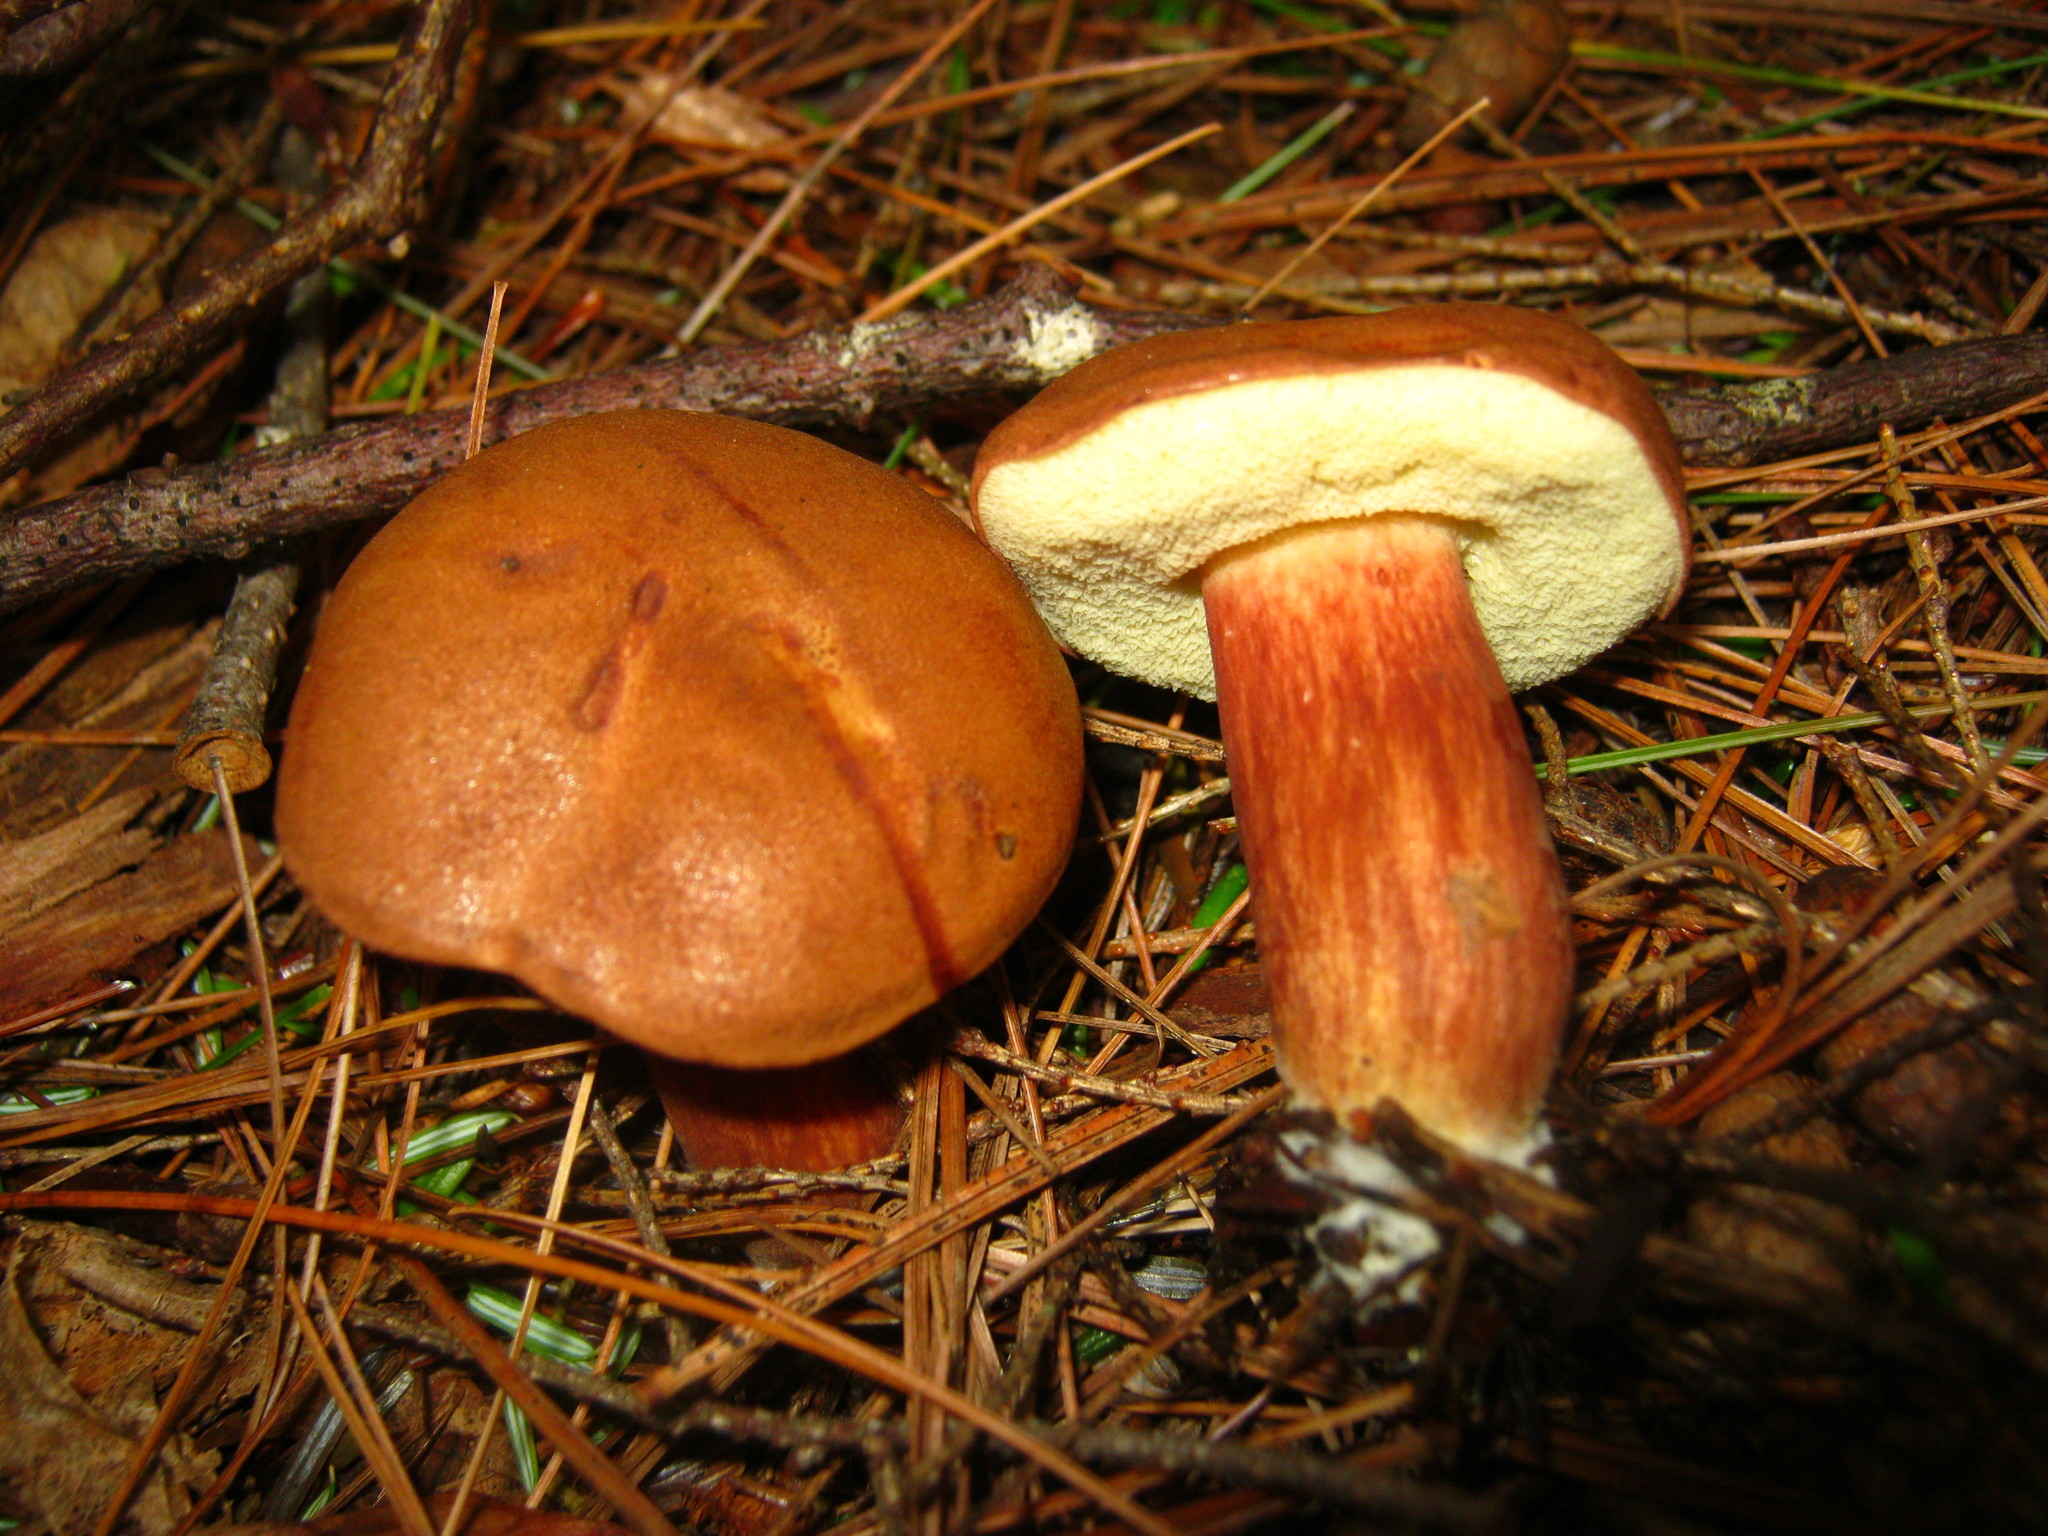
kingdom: Fungi
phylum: Basidiomycota
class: Agaricomycetes
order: Boletales
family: Boletaceae
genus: Imleria
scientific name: Imleria badia
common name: Bay bolete
